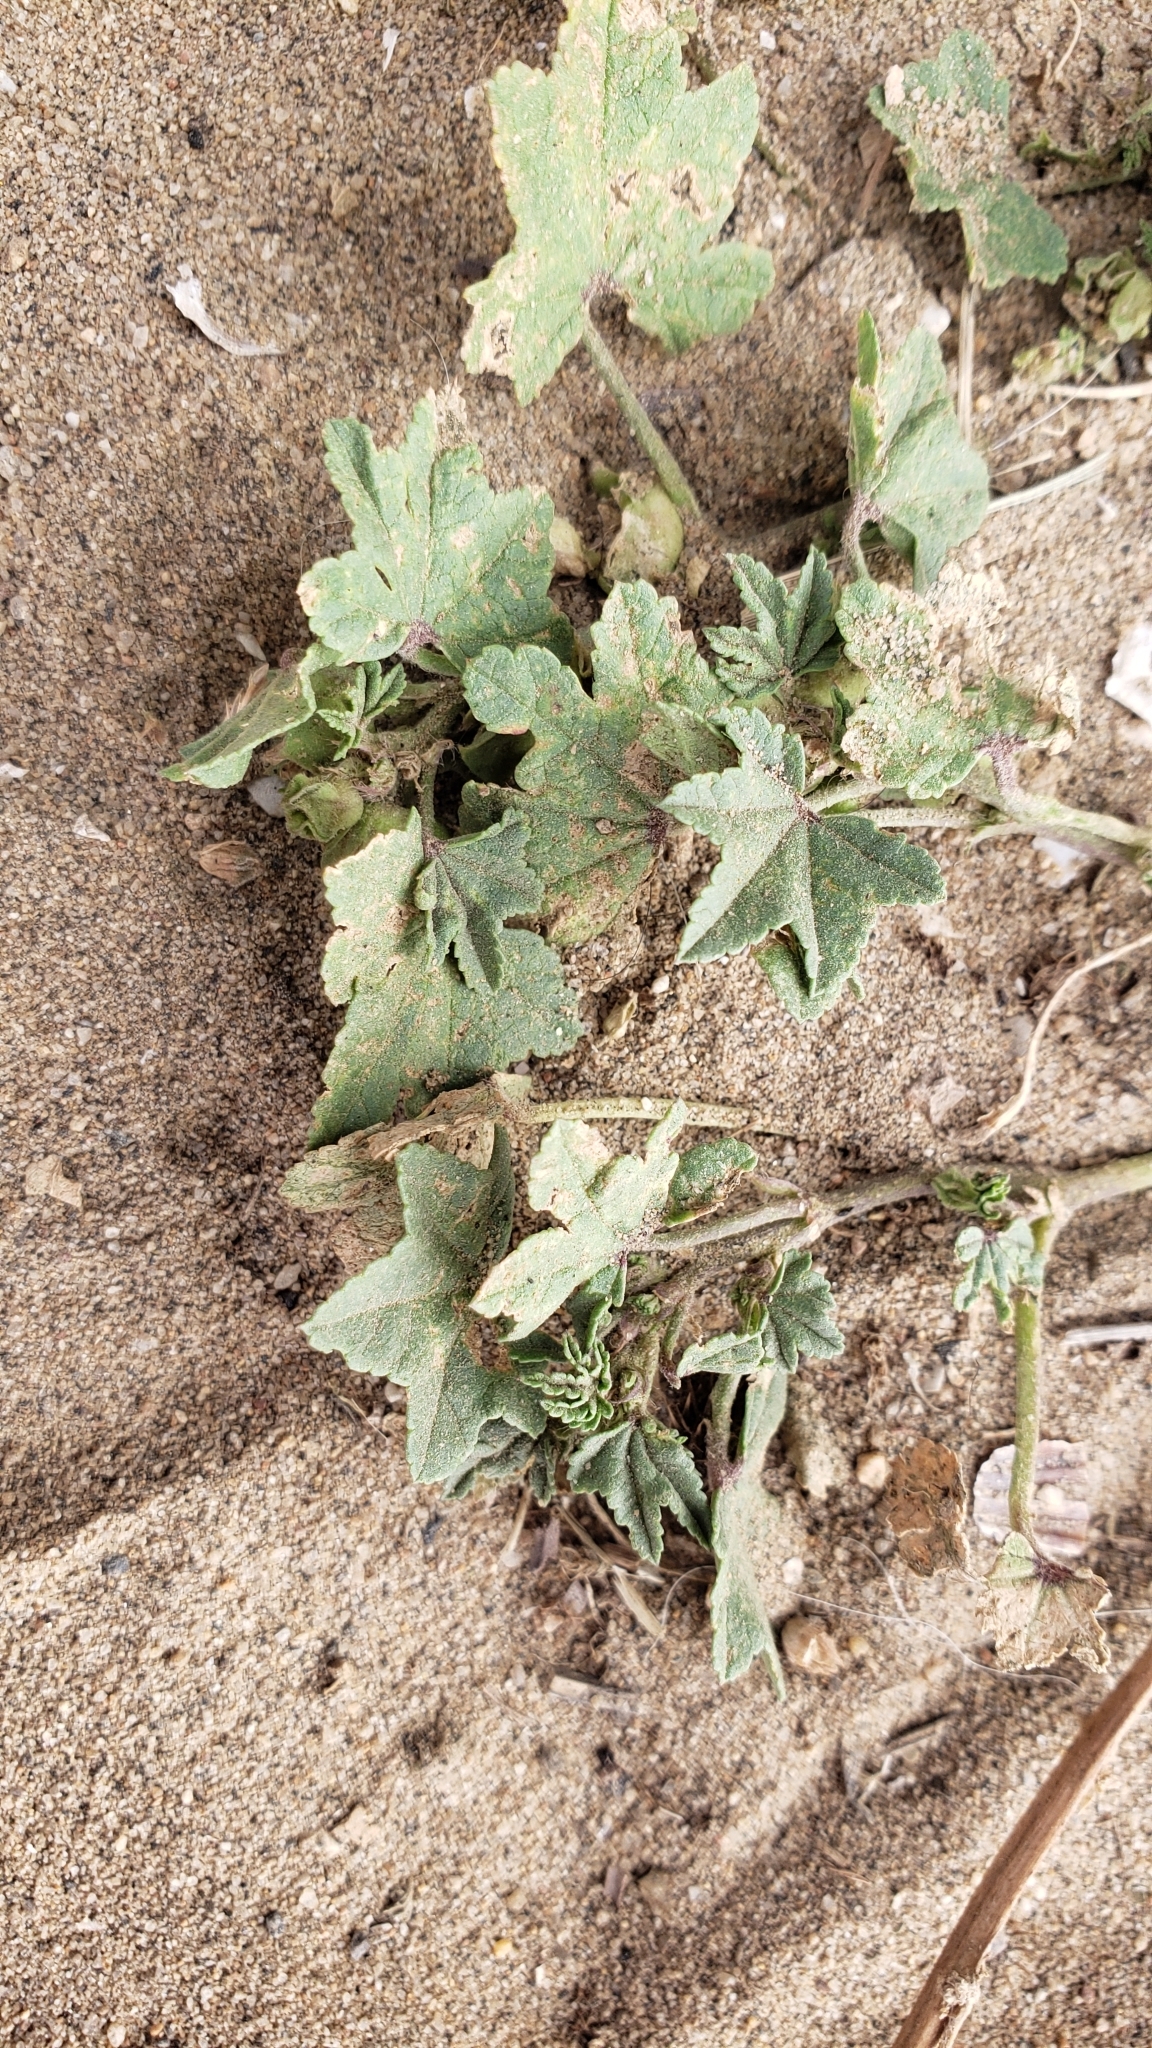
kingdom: Plantae
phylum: Tracheophyta
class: Magnoliopsida
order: Malvales
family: Malvaceae
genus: Malva
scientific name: Malva parviflora
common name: Least mallow
